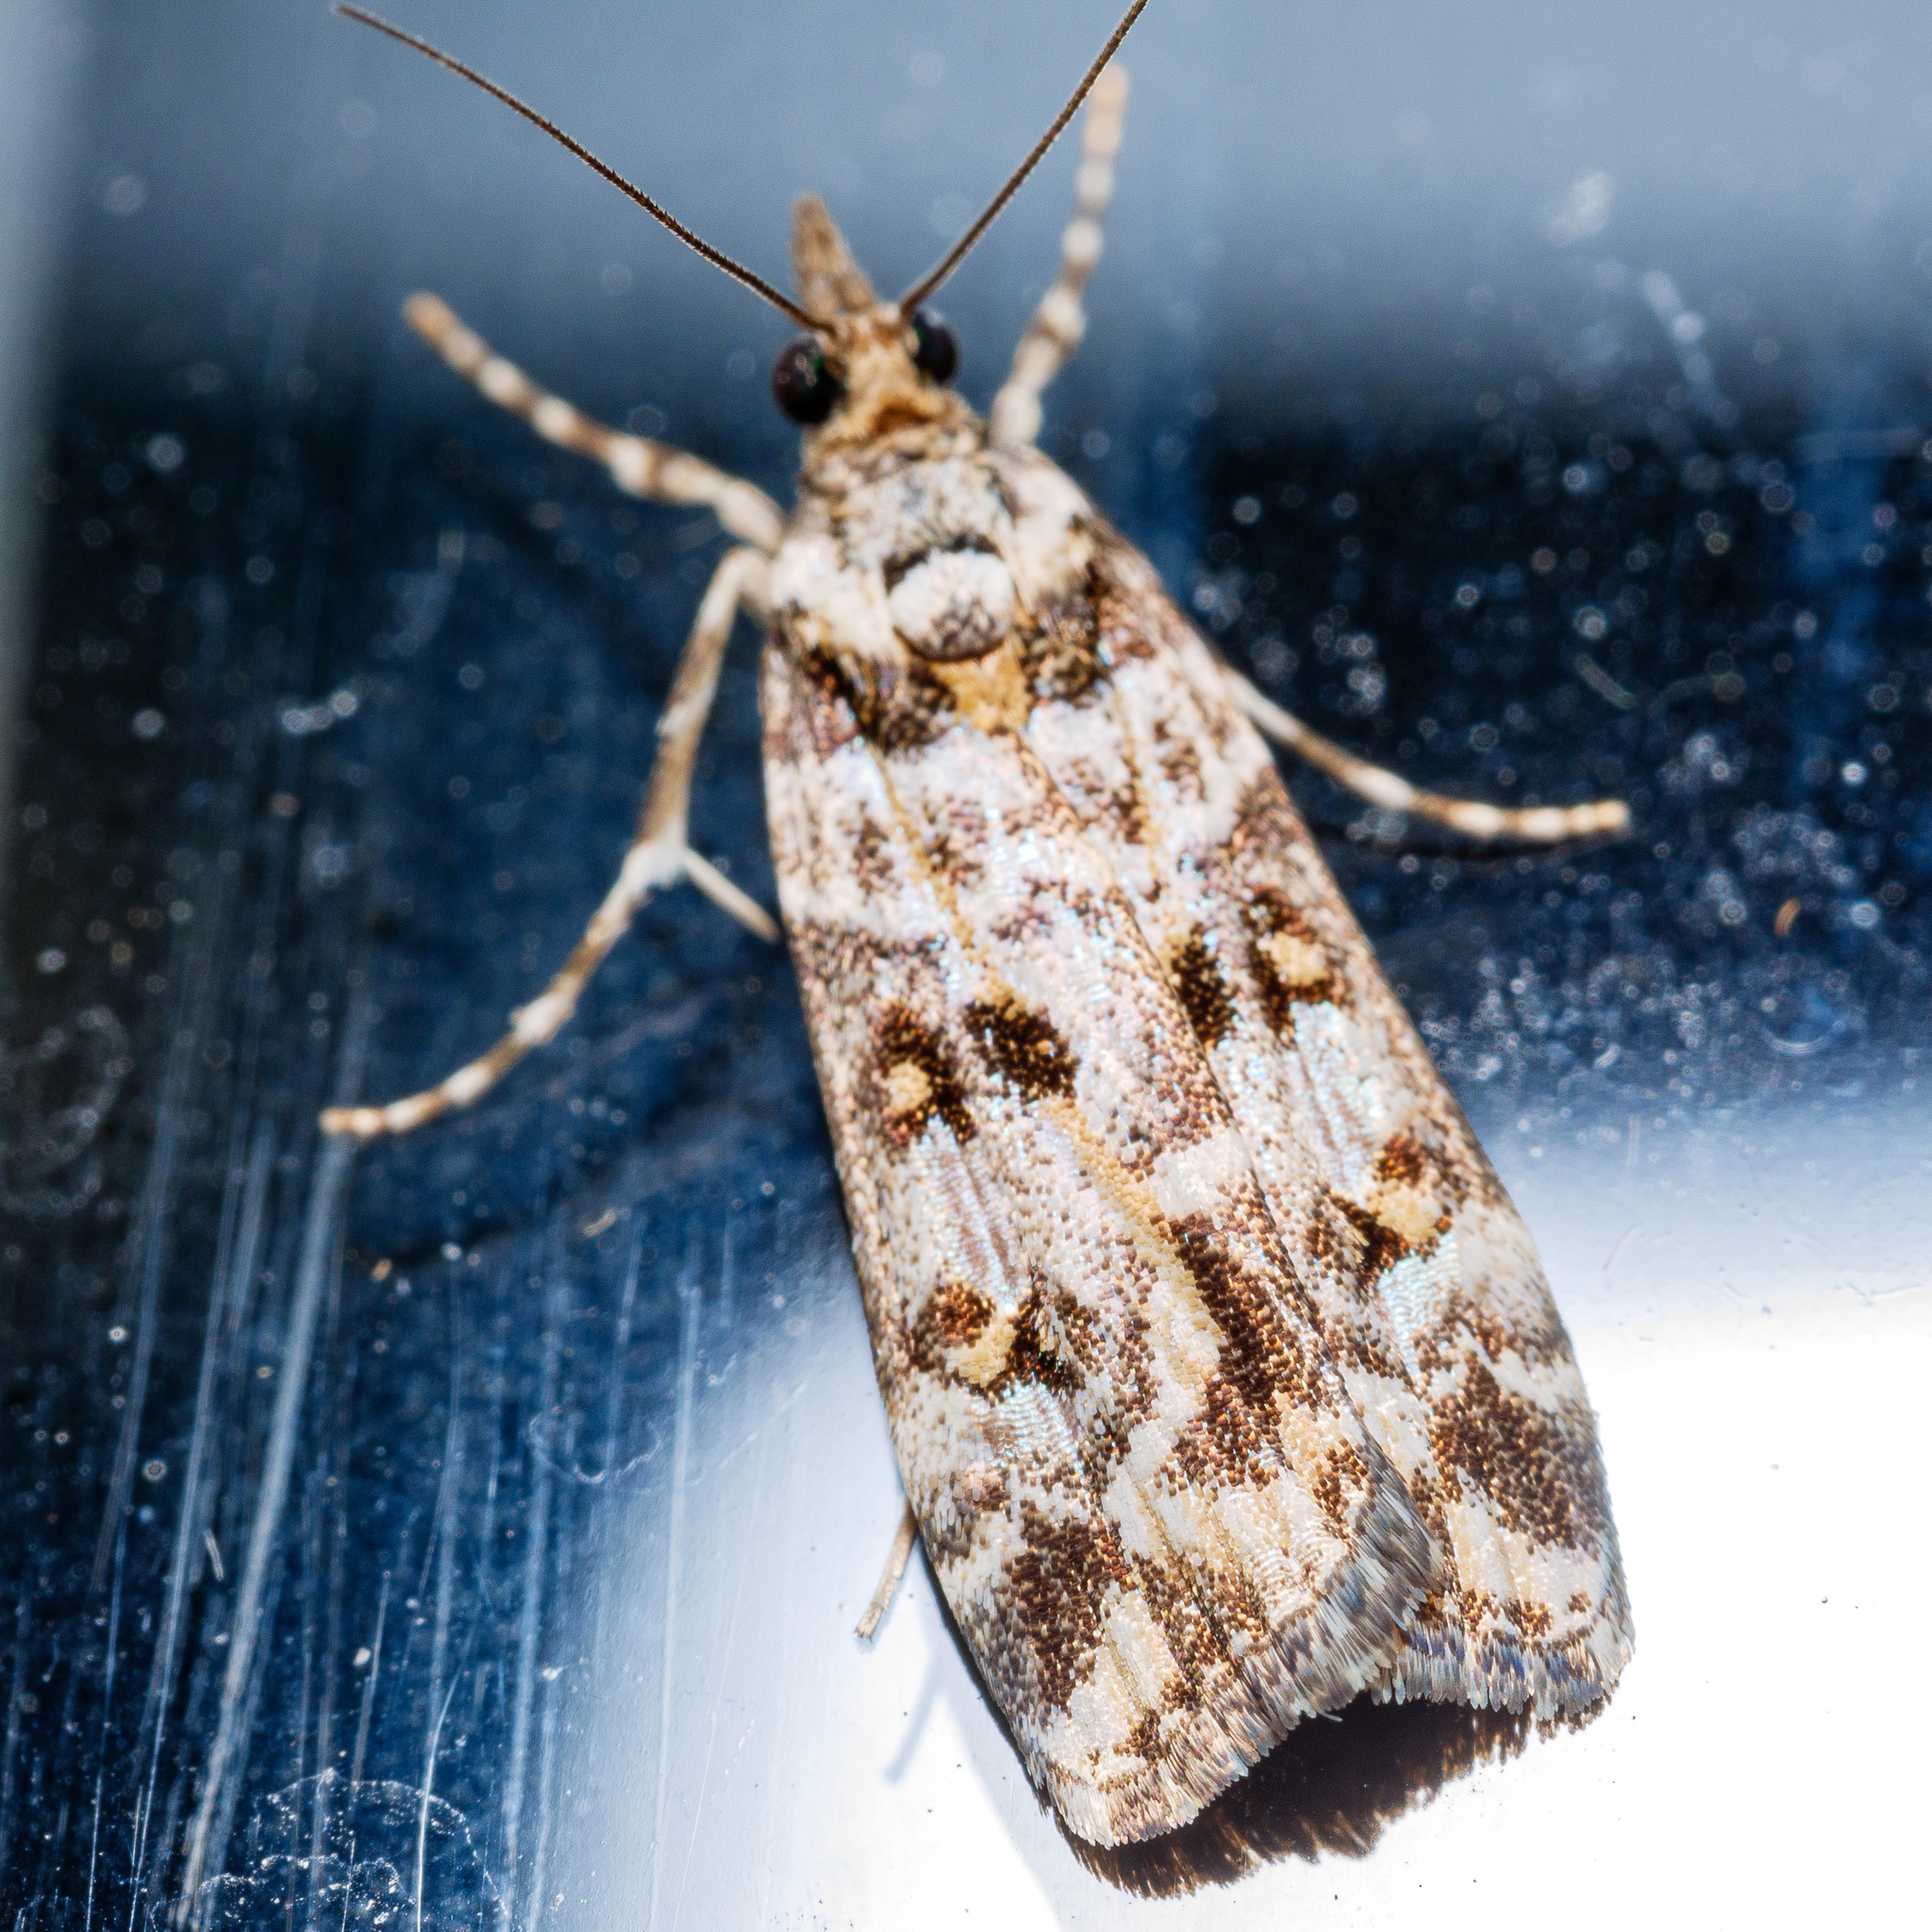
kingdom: Animalia
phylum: Arthropoda
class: Insecta
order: Lepidoptera
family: Crambidae
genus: Eudonia
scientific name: Eudonia diphtheralis
